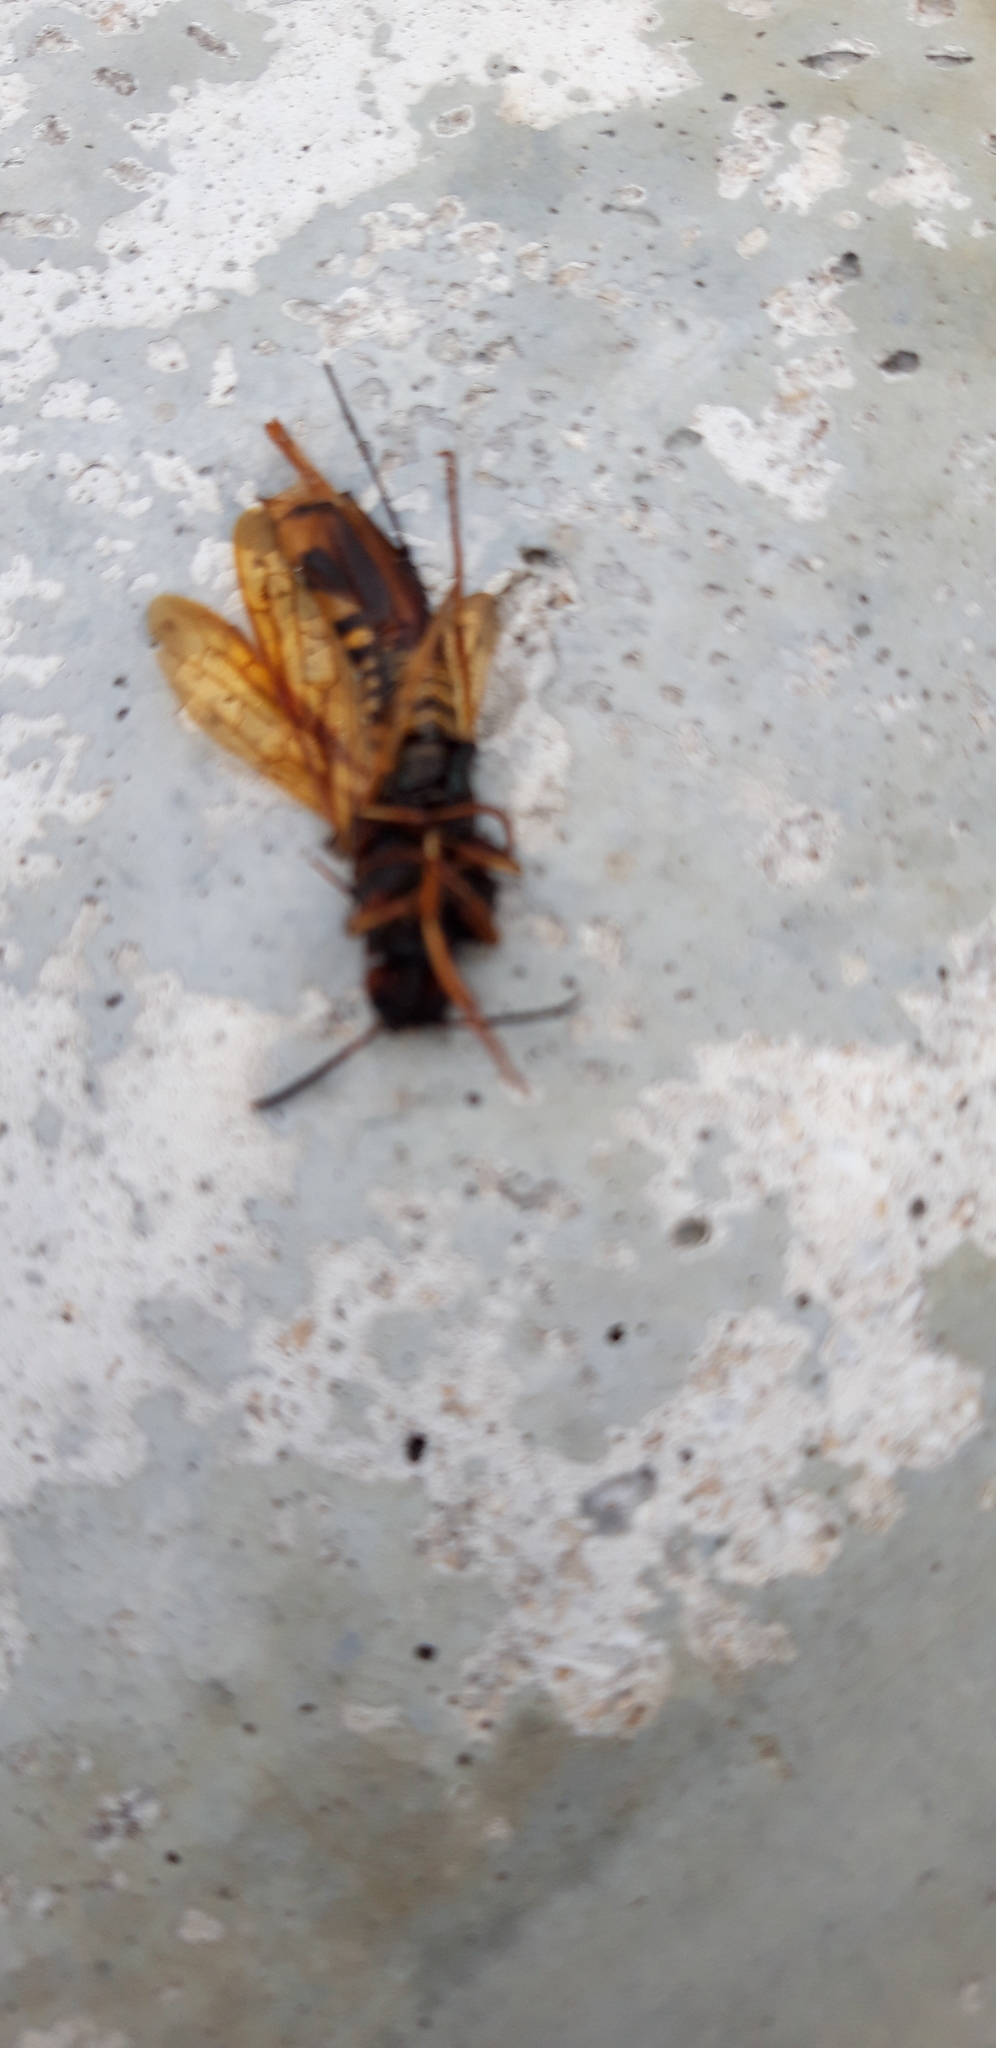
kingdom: Animalia
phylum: Arthropoda
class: Insecta
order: Hymenoptera
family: Siricidae
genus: Tremex
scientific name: Tremex fuscicornis
